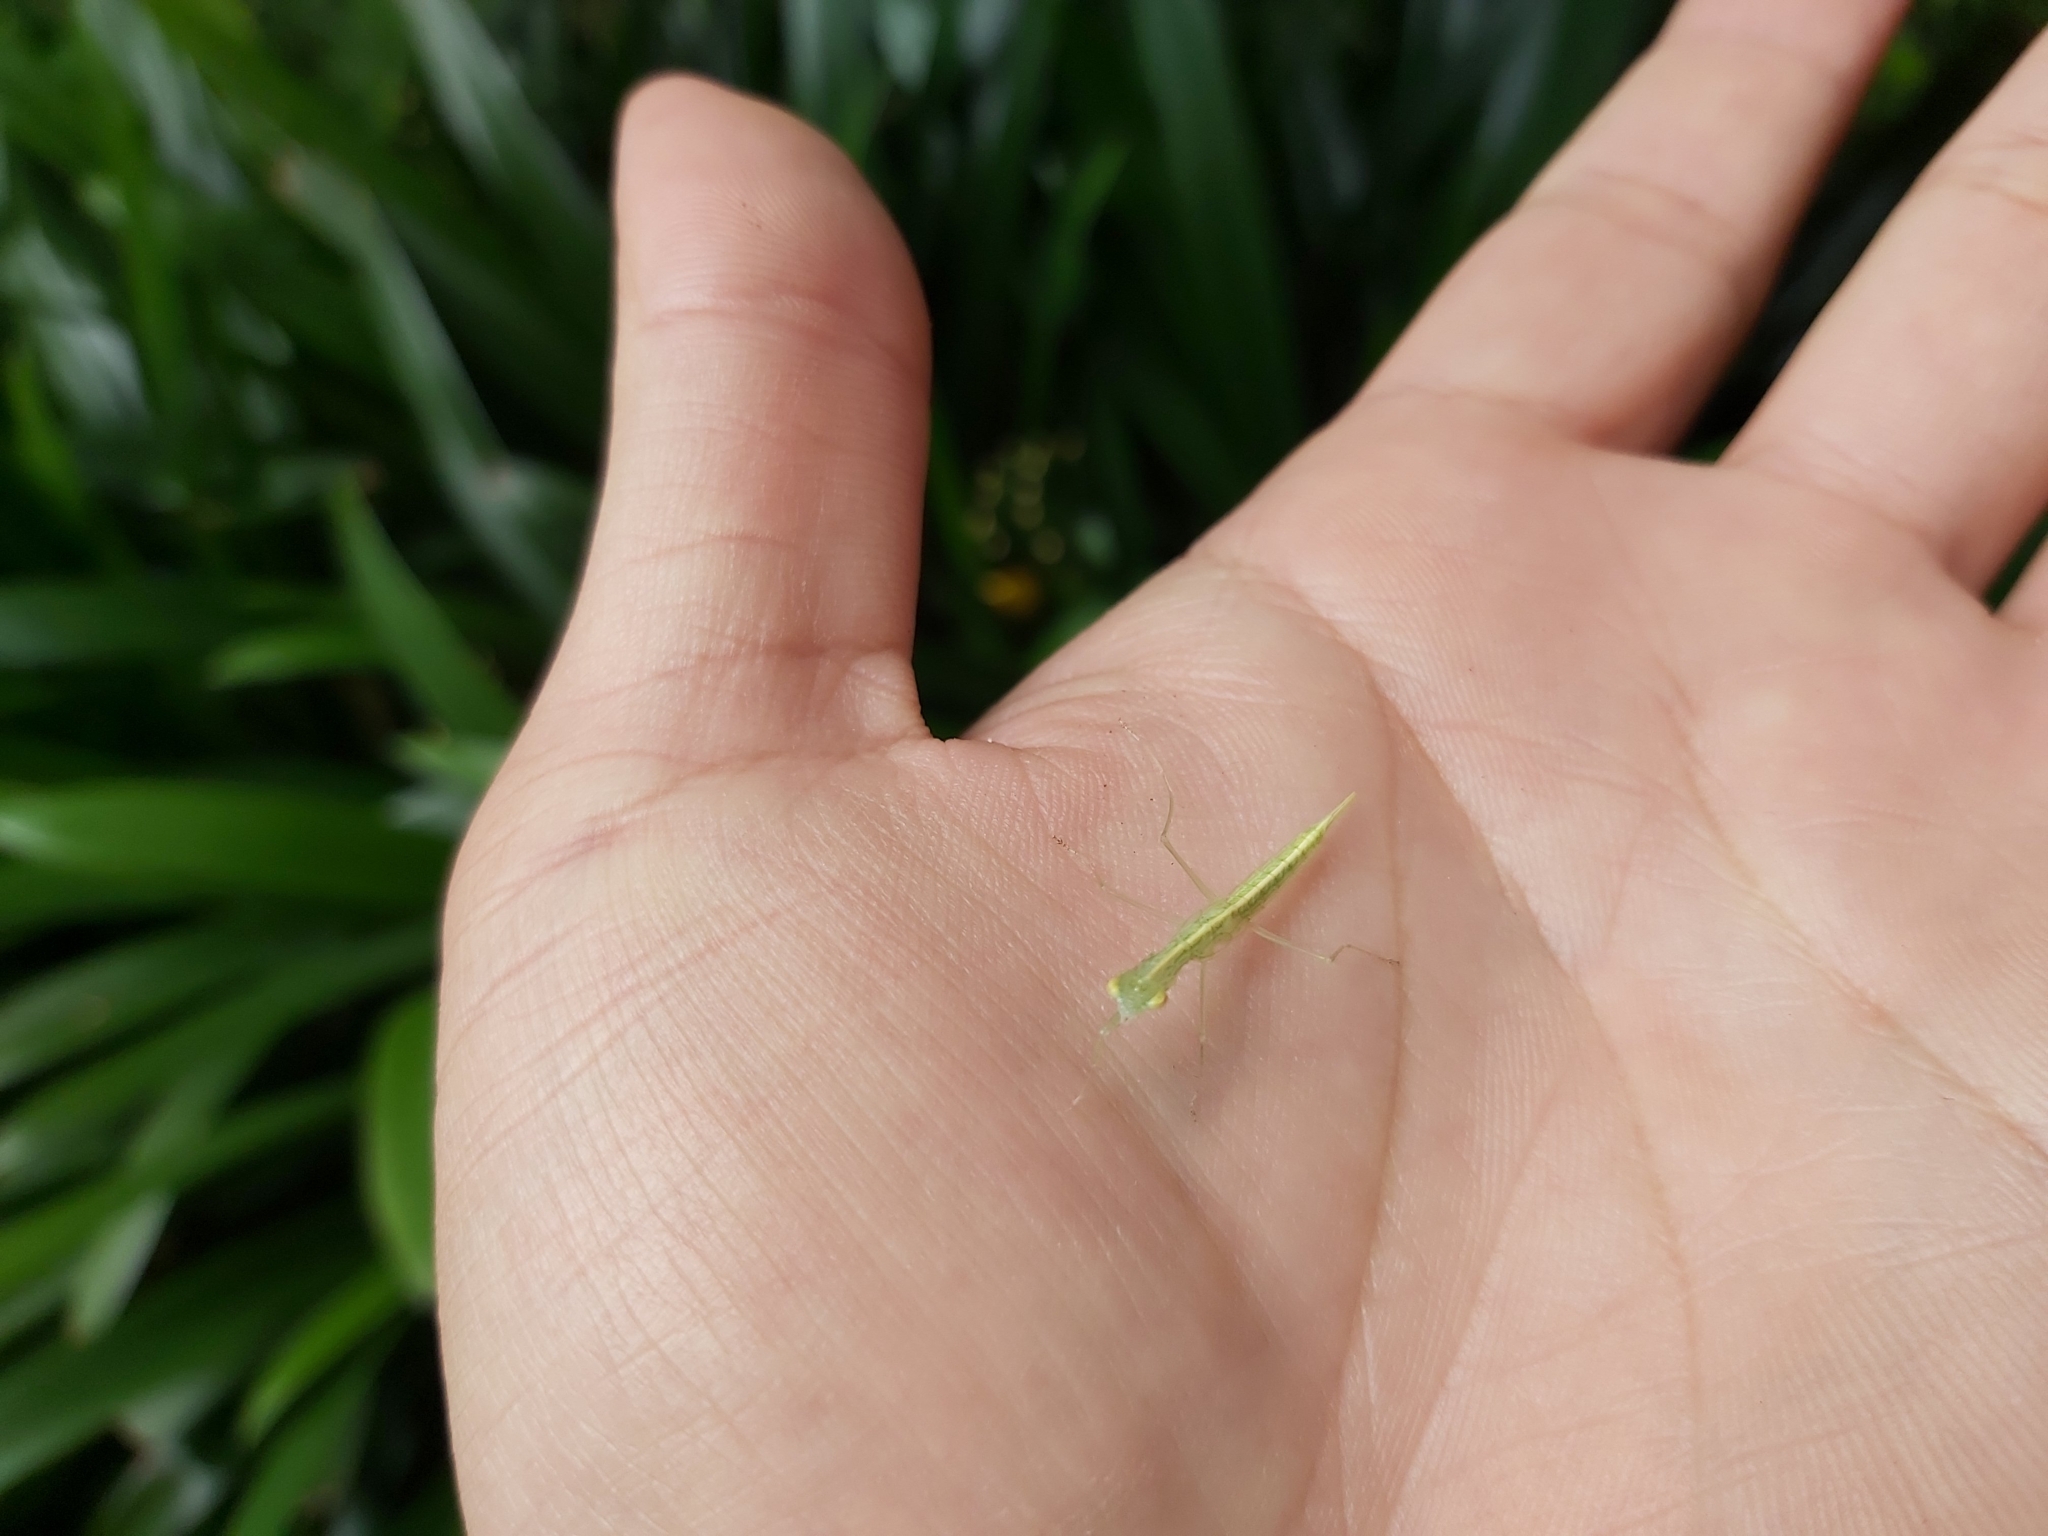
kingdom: Animalia
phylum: Arthropoda
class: Insecta
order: Mantodea
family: Nanomantidae
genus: Kongobatha
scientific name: Kongobatha diademata
